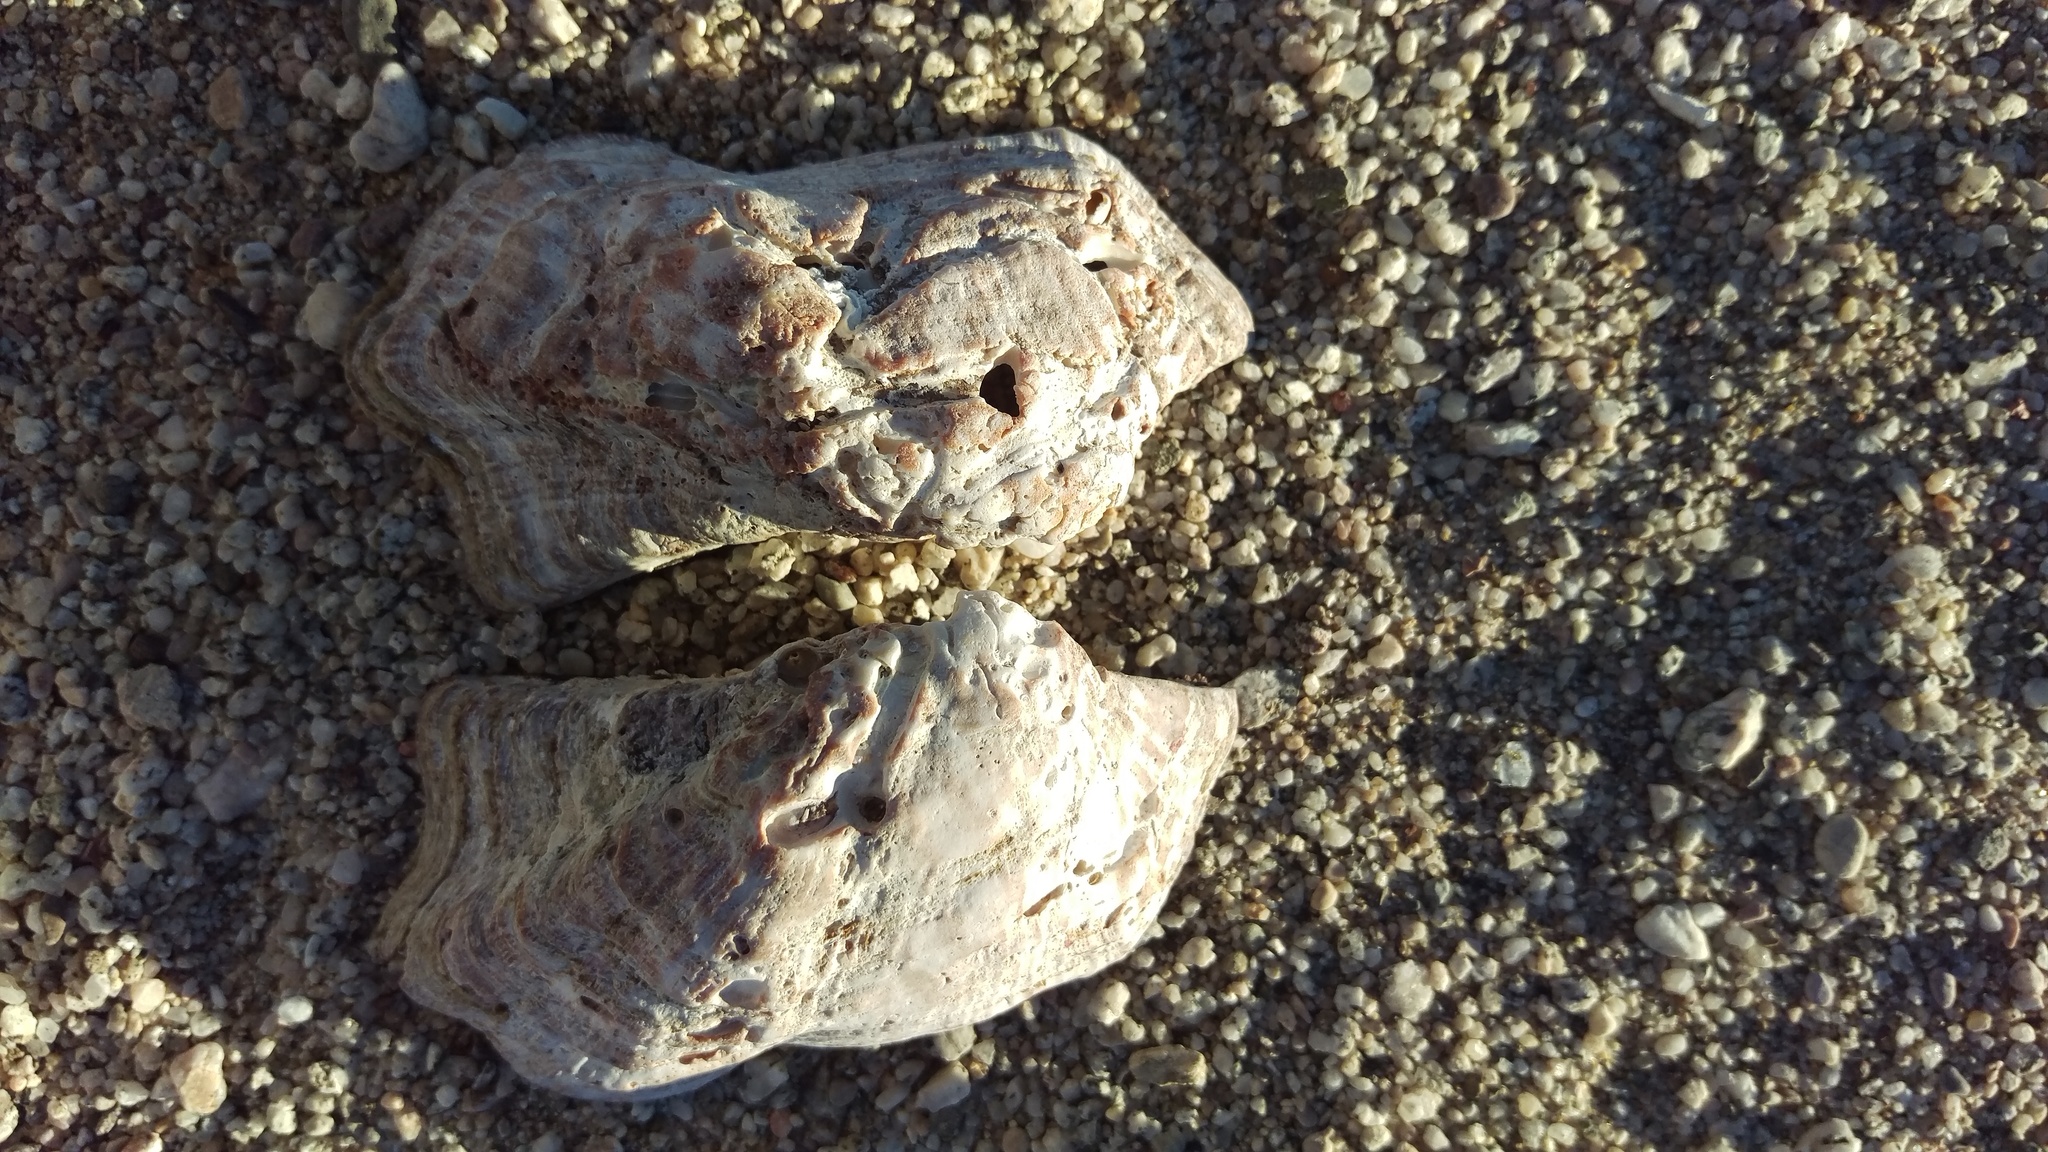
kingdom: Animalia
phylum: Mollusca
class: Bivalvia
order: Arcida
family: Arcidae
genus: Arca
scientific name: Arca pacifica
